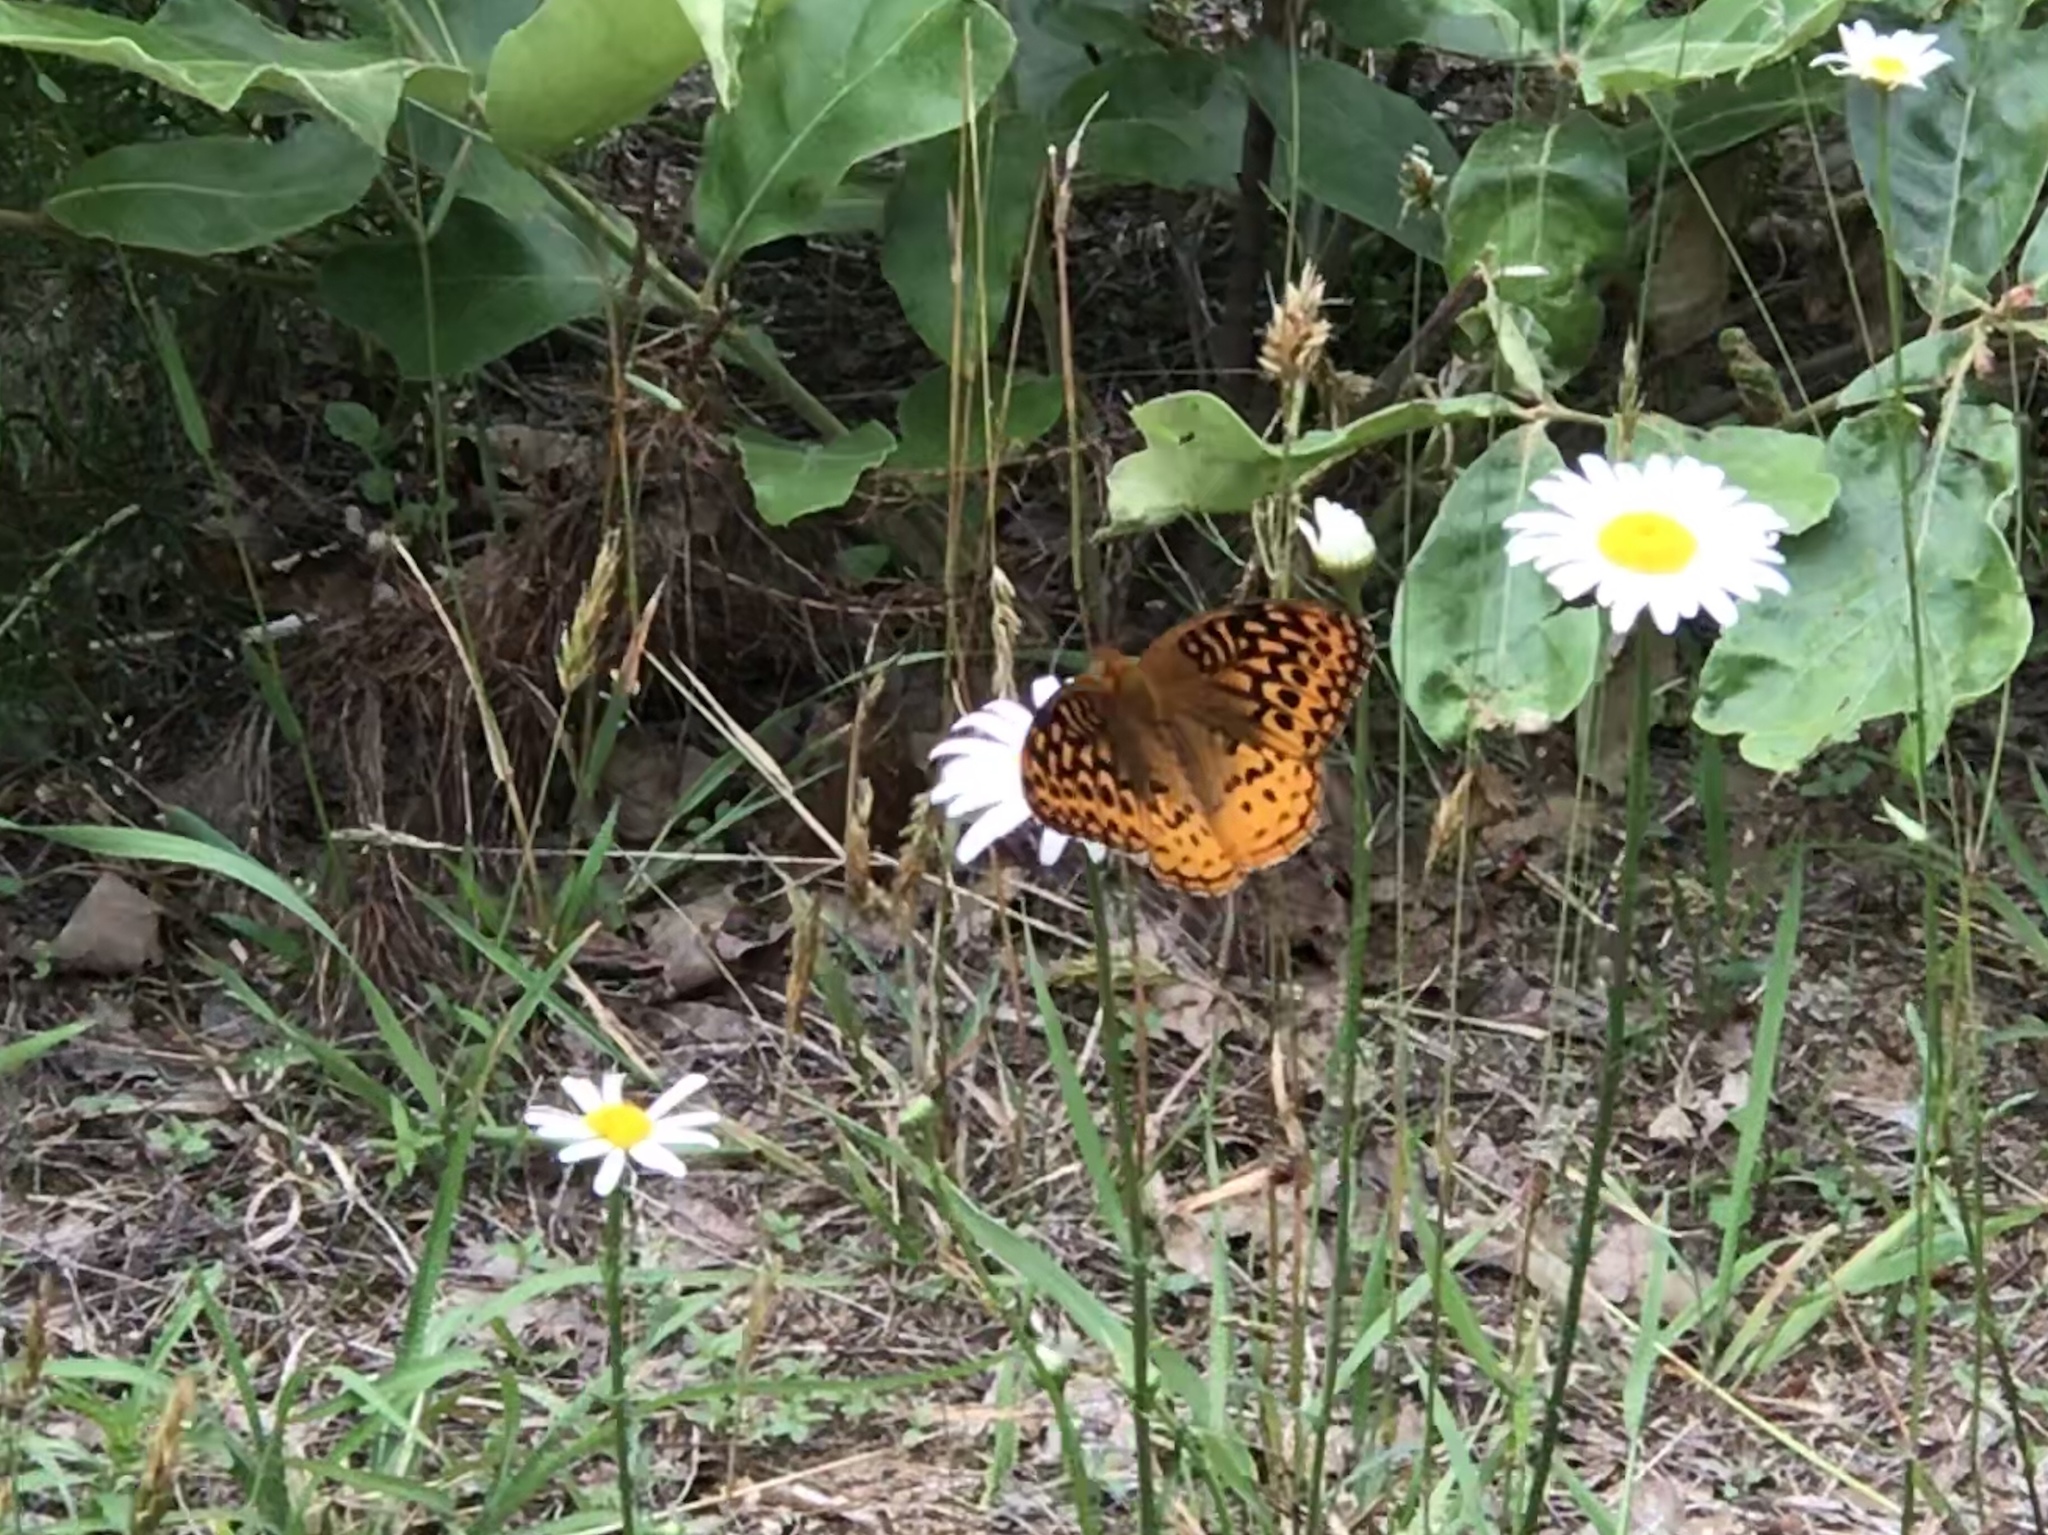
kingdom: Animalia
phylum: Arthropoda
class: Insecta
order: Lepidoptera
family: Nymphalidae
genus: Speyeria
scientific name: Speyeria cybele
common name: Great spangled fritillary
